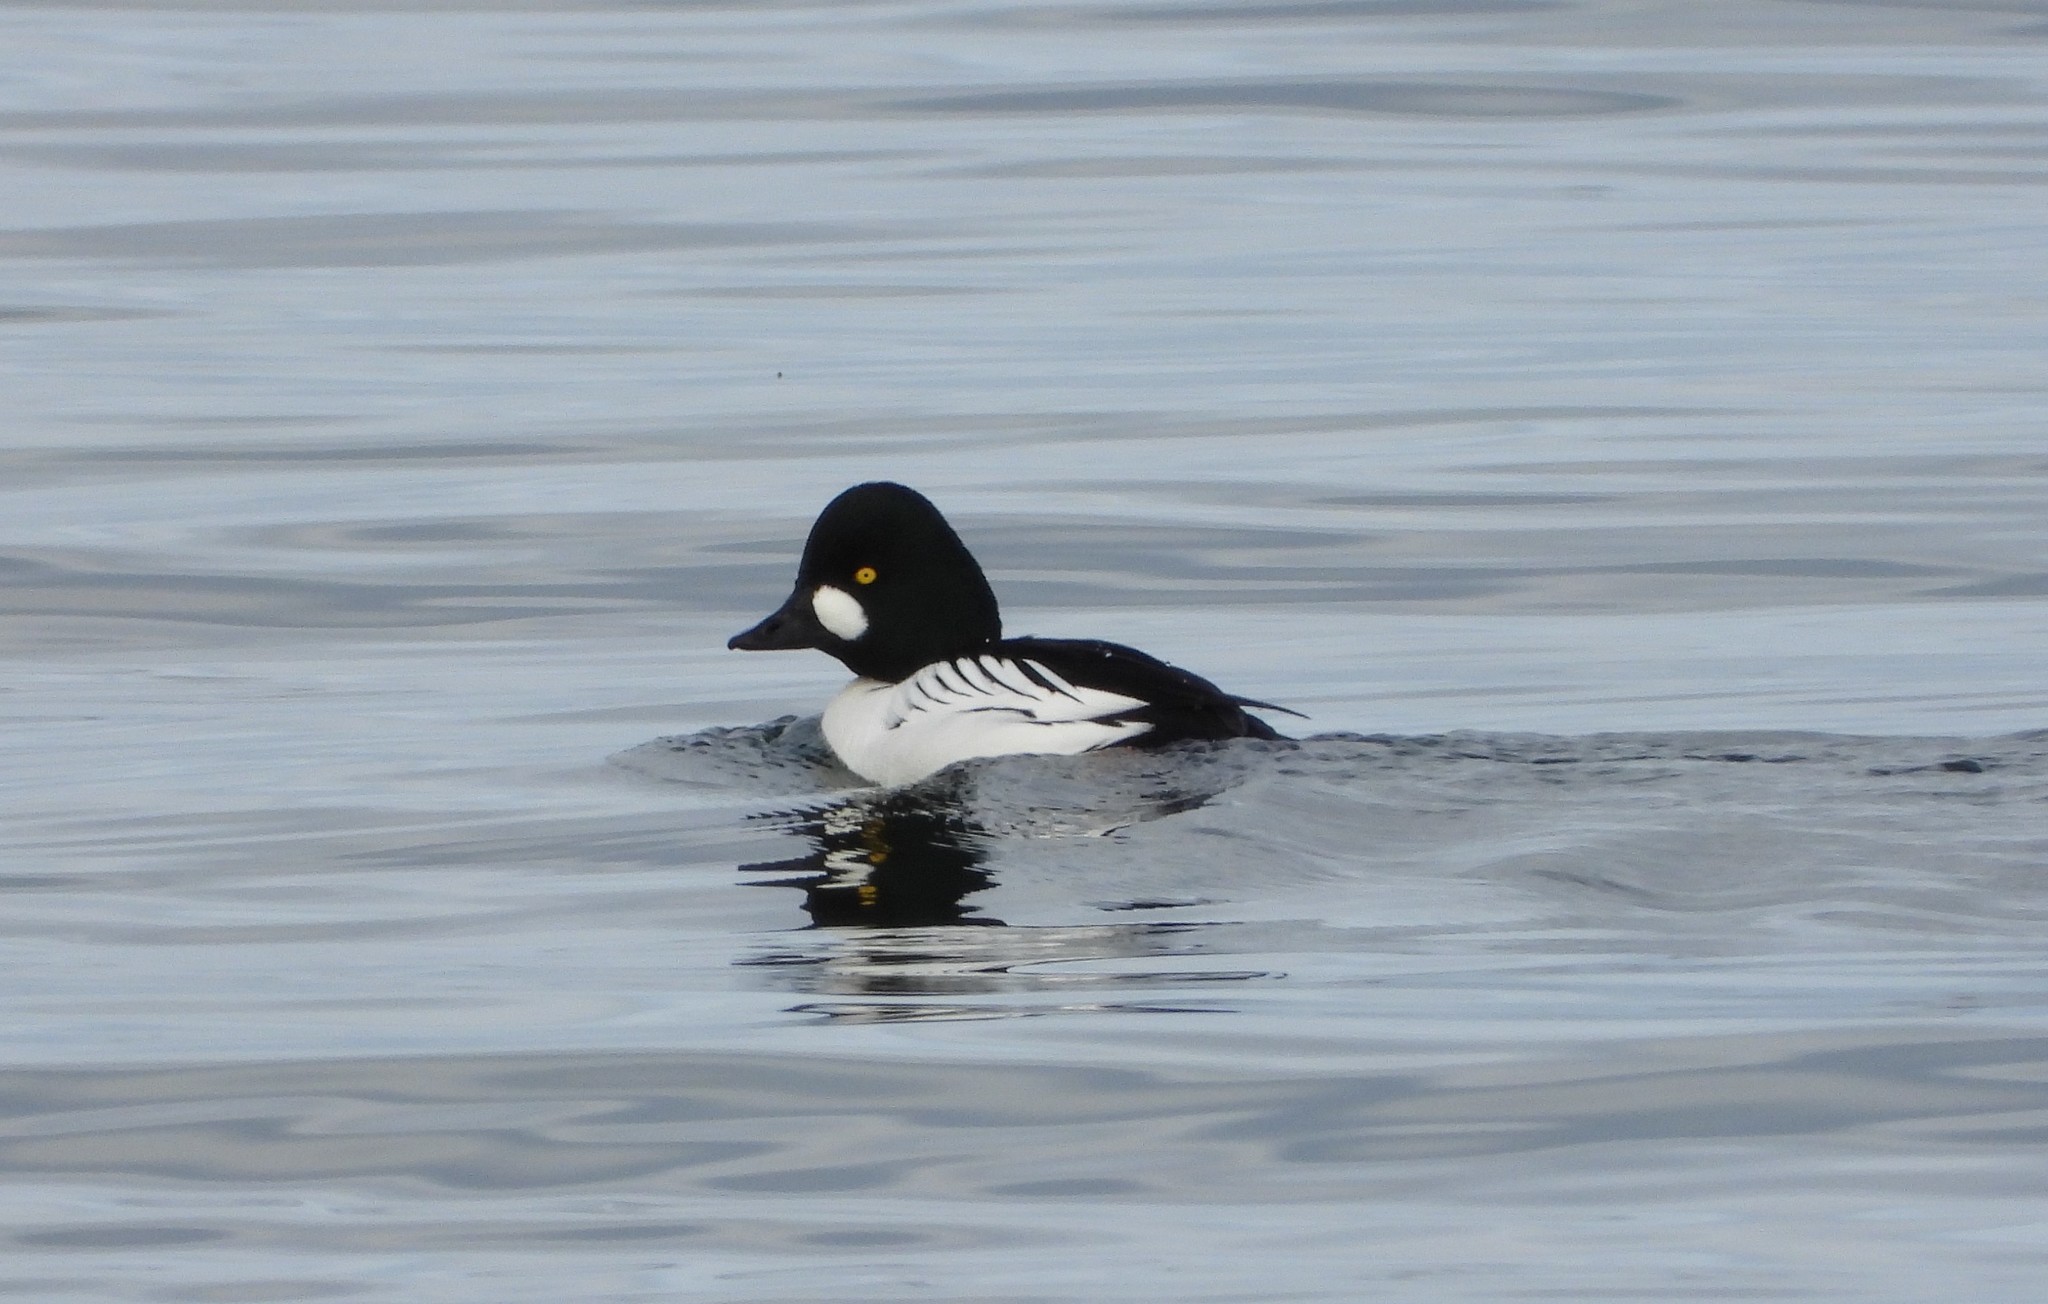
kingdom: Animalia
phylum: Chordata
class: Aves
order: Anseriformes
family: Anatidae
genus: Bucephala
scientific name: Bucephala clangula
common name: Common goldeneye
